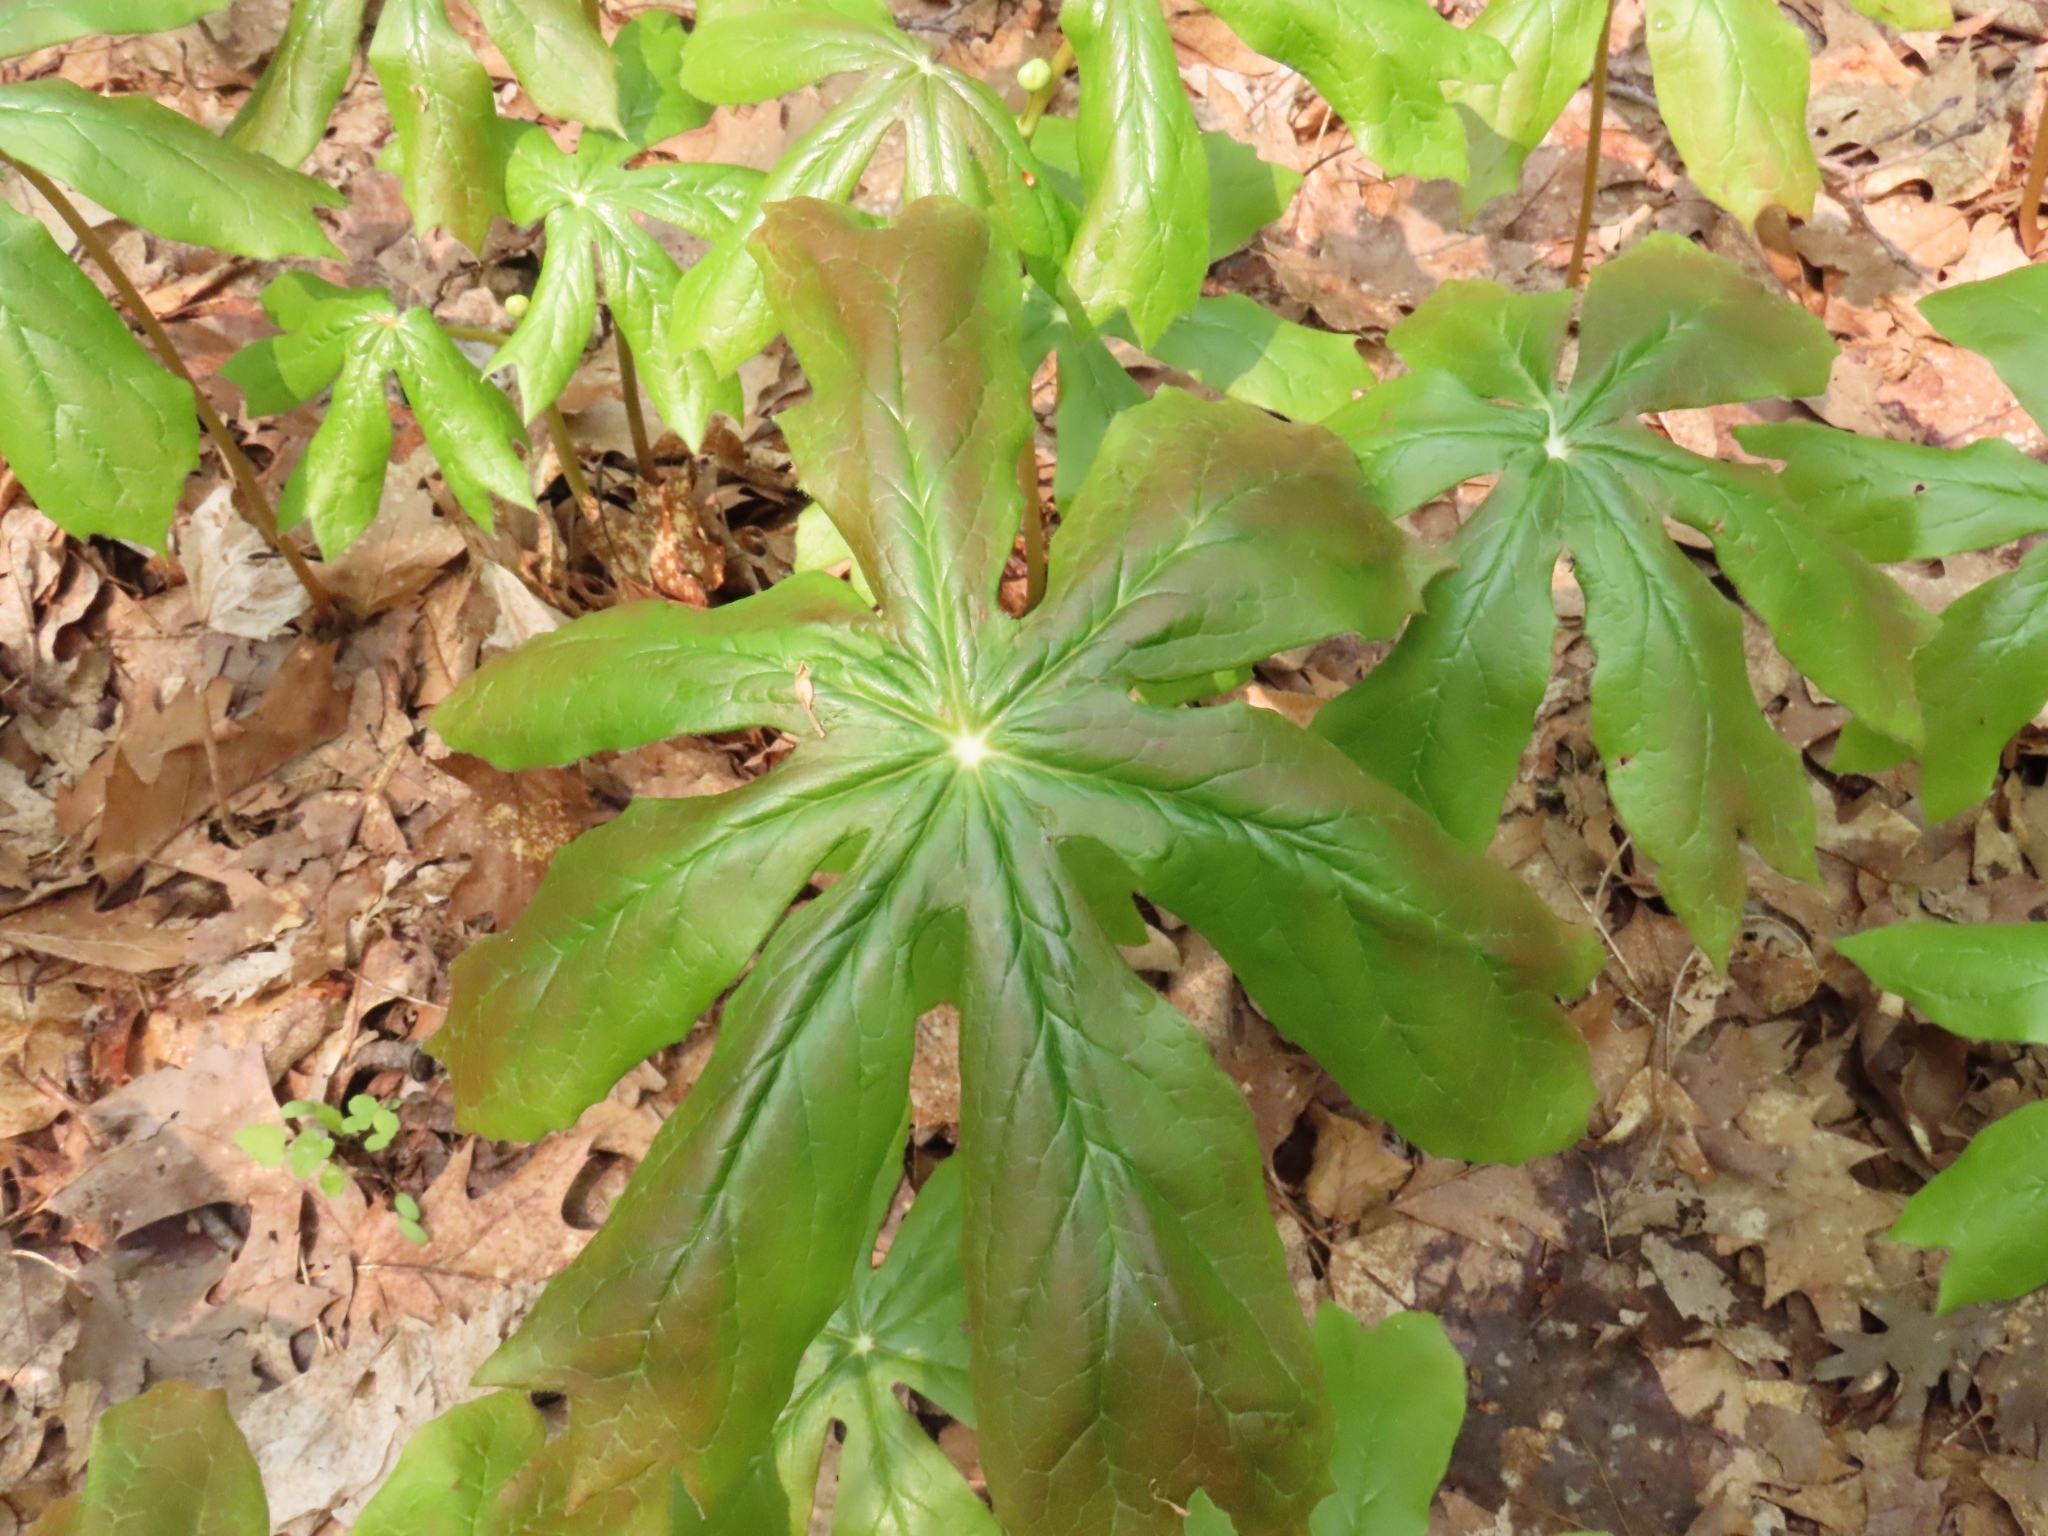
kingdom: Plantae
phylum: Tracheophyta
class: Magnoliopsida
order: Ranunculales
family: Berberidaceae
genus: Podophyllum
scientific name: Podophyllum peltatum
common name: Wild mandrake
